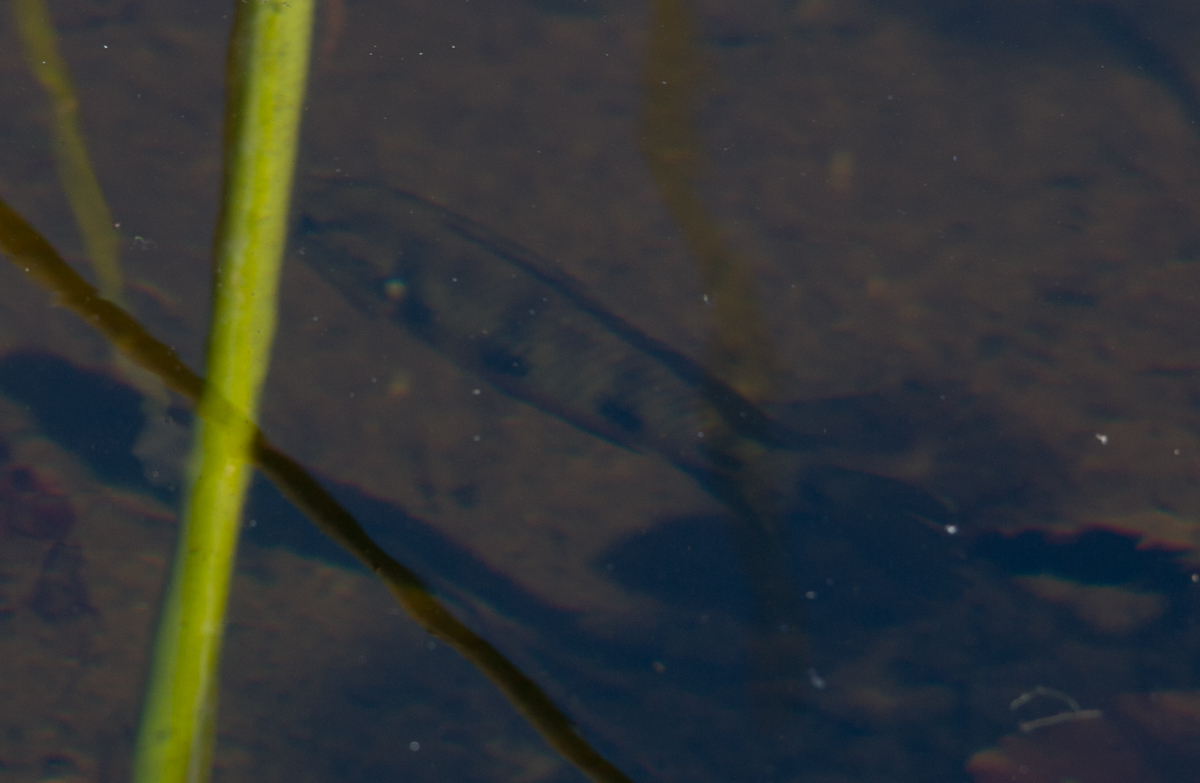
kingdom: Animalia
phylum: Chordata
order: Perciformes
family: Cichlidae
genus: Hemichromis
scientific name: Hemichromis elongatus
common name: Jewel cichlid
